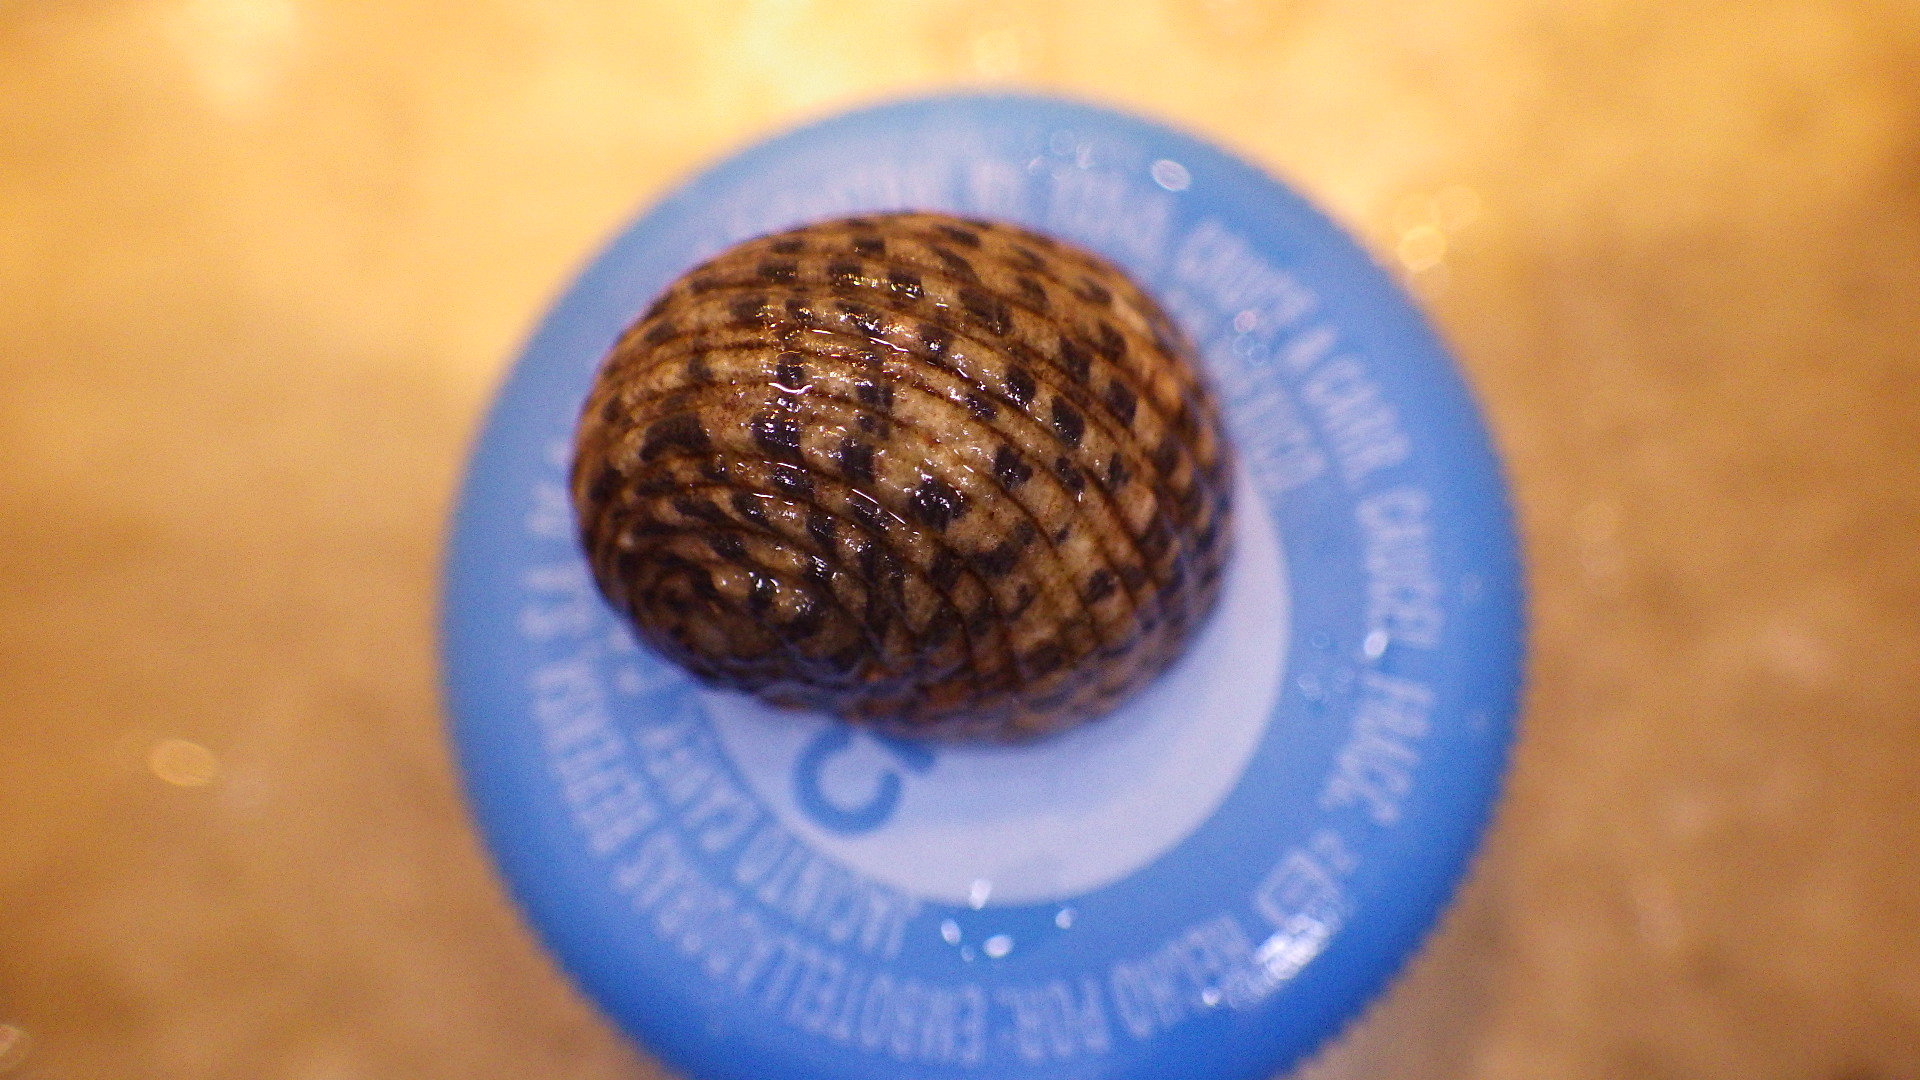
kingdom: Animalia
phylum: Mollusca
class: Gastropoda
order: Cycloneritida
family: Neritidae
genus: Nerita
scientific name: Nerita tessellata
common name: Checkered nerite
